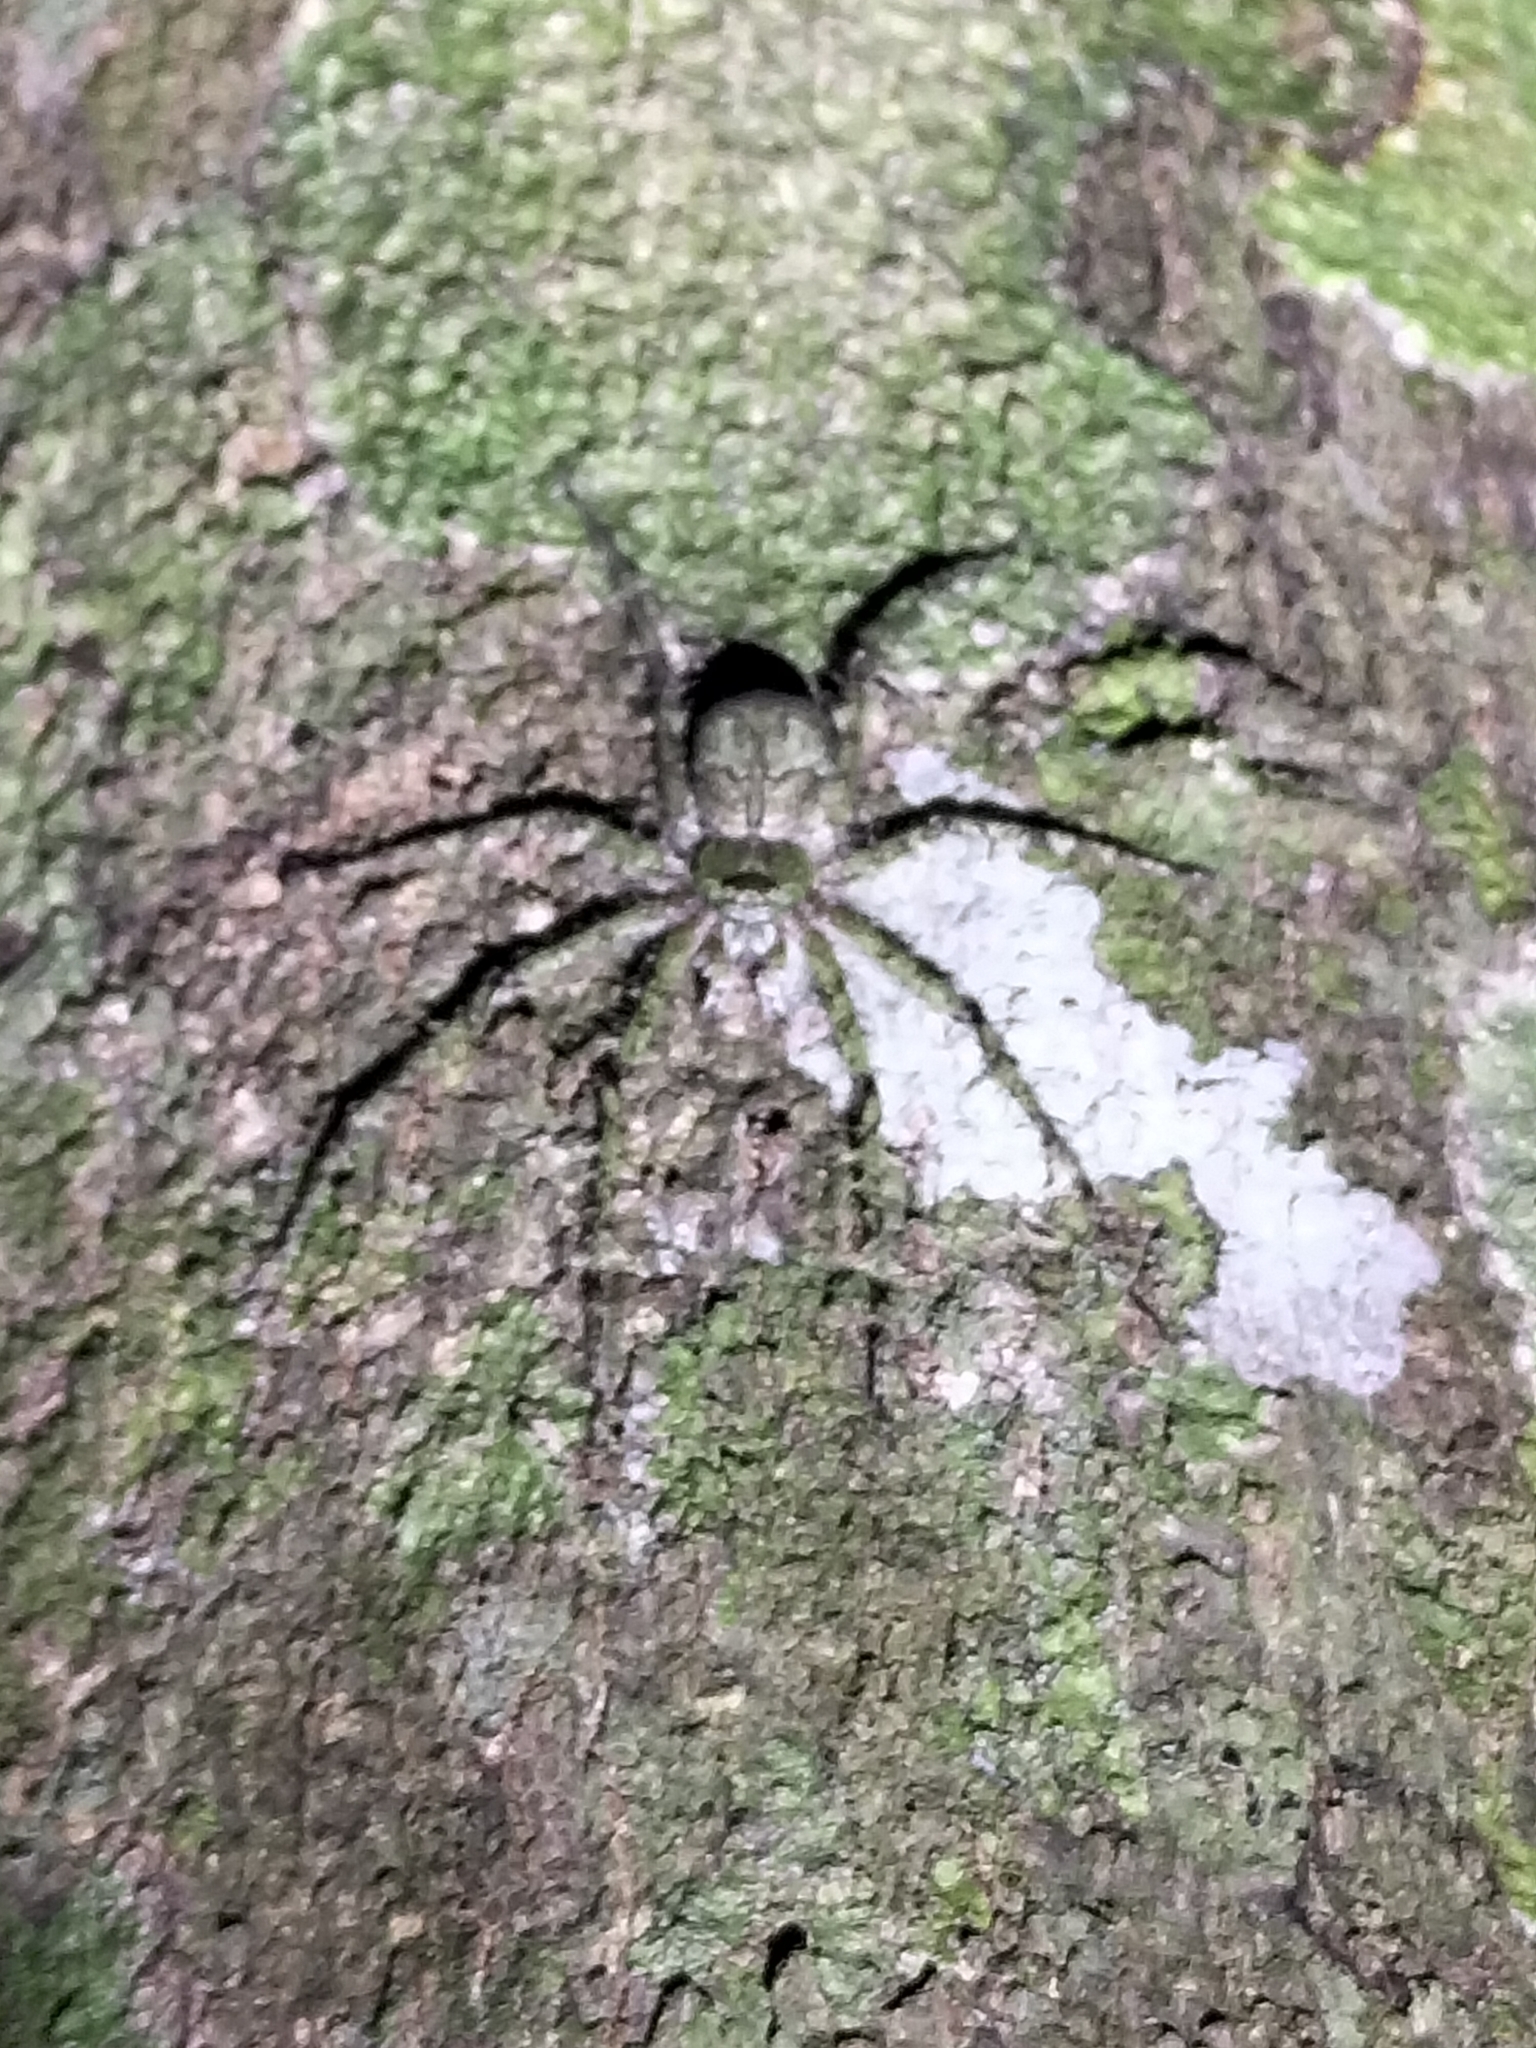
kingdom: Animalia
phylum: Arthropoda
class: Arachnida
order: Araneae
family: Sparassidae
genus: Pandercetes
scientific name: Pandercetes gracilis
